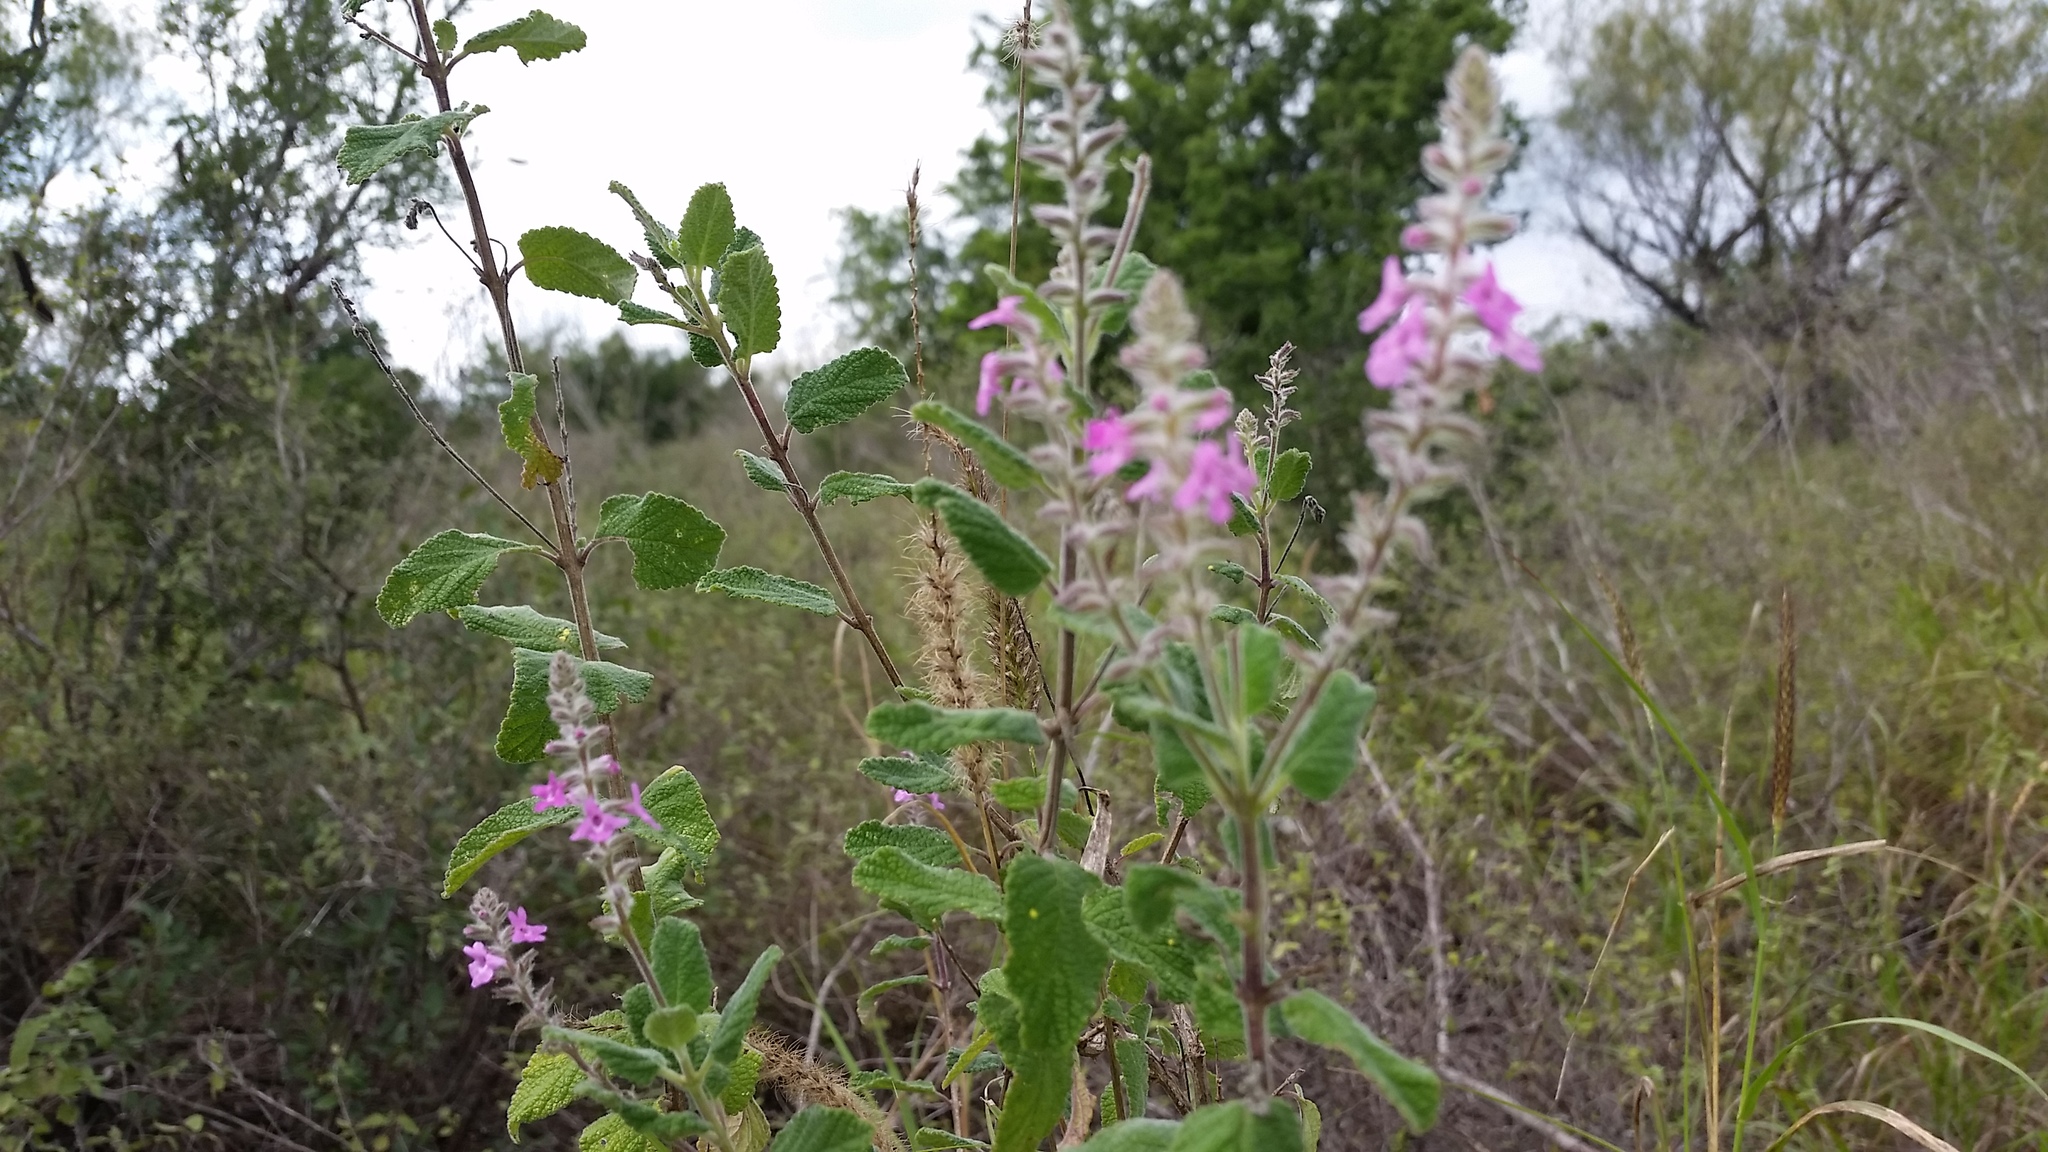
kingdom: Plantae
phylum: Tracheophyta
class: Magnoliopsida
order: Lamiales
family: Verbenaceae
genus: Aloysia
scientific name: Aloysia macrostachya
